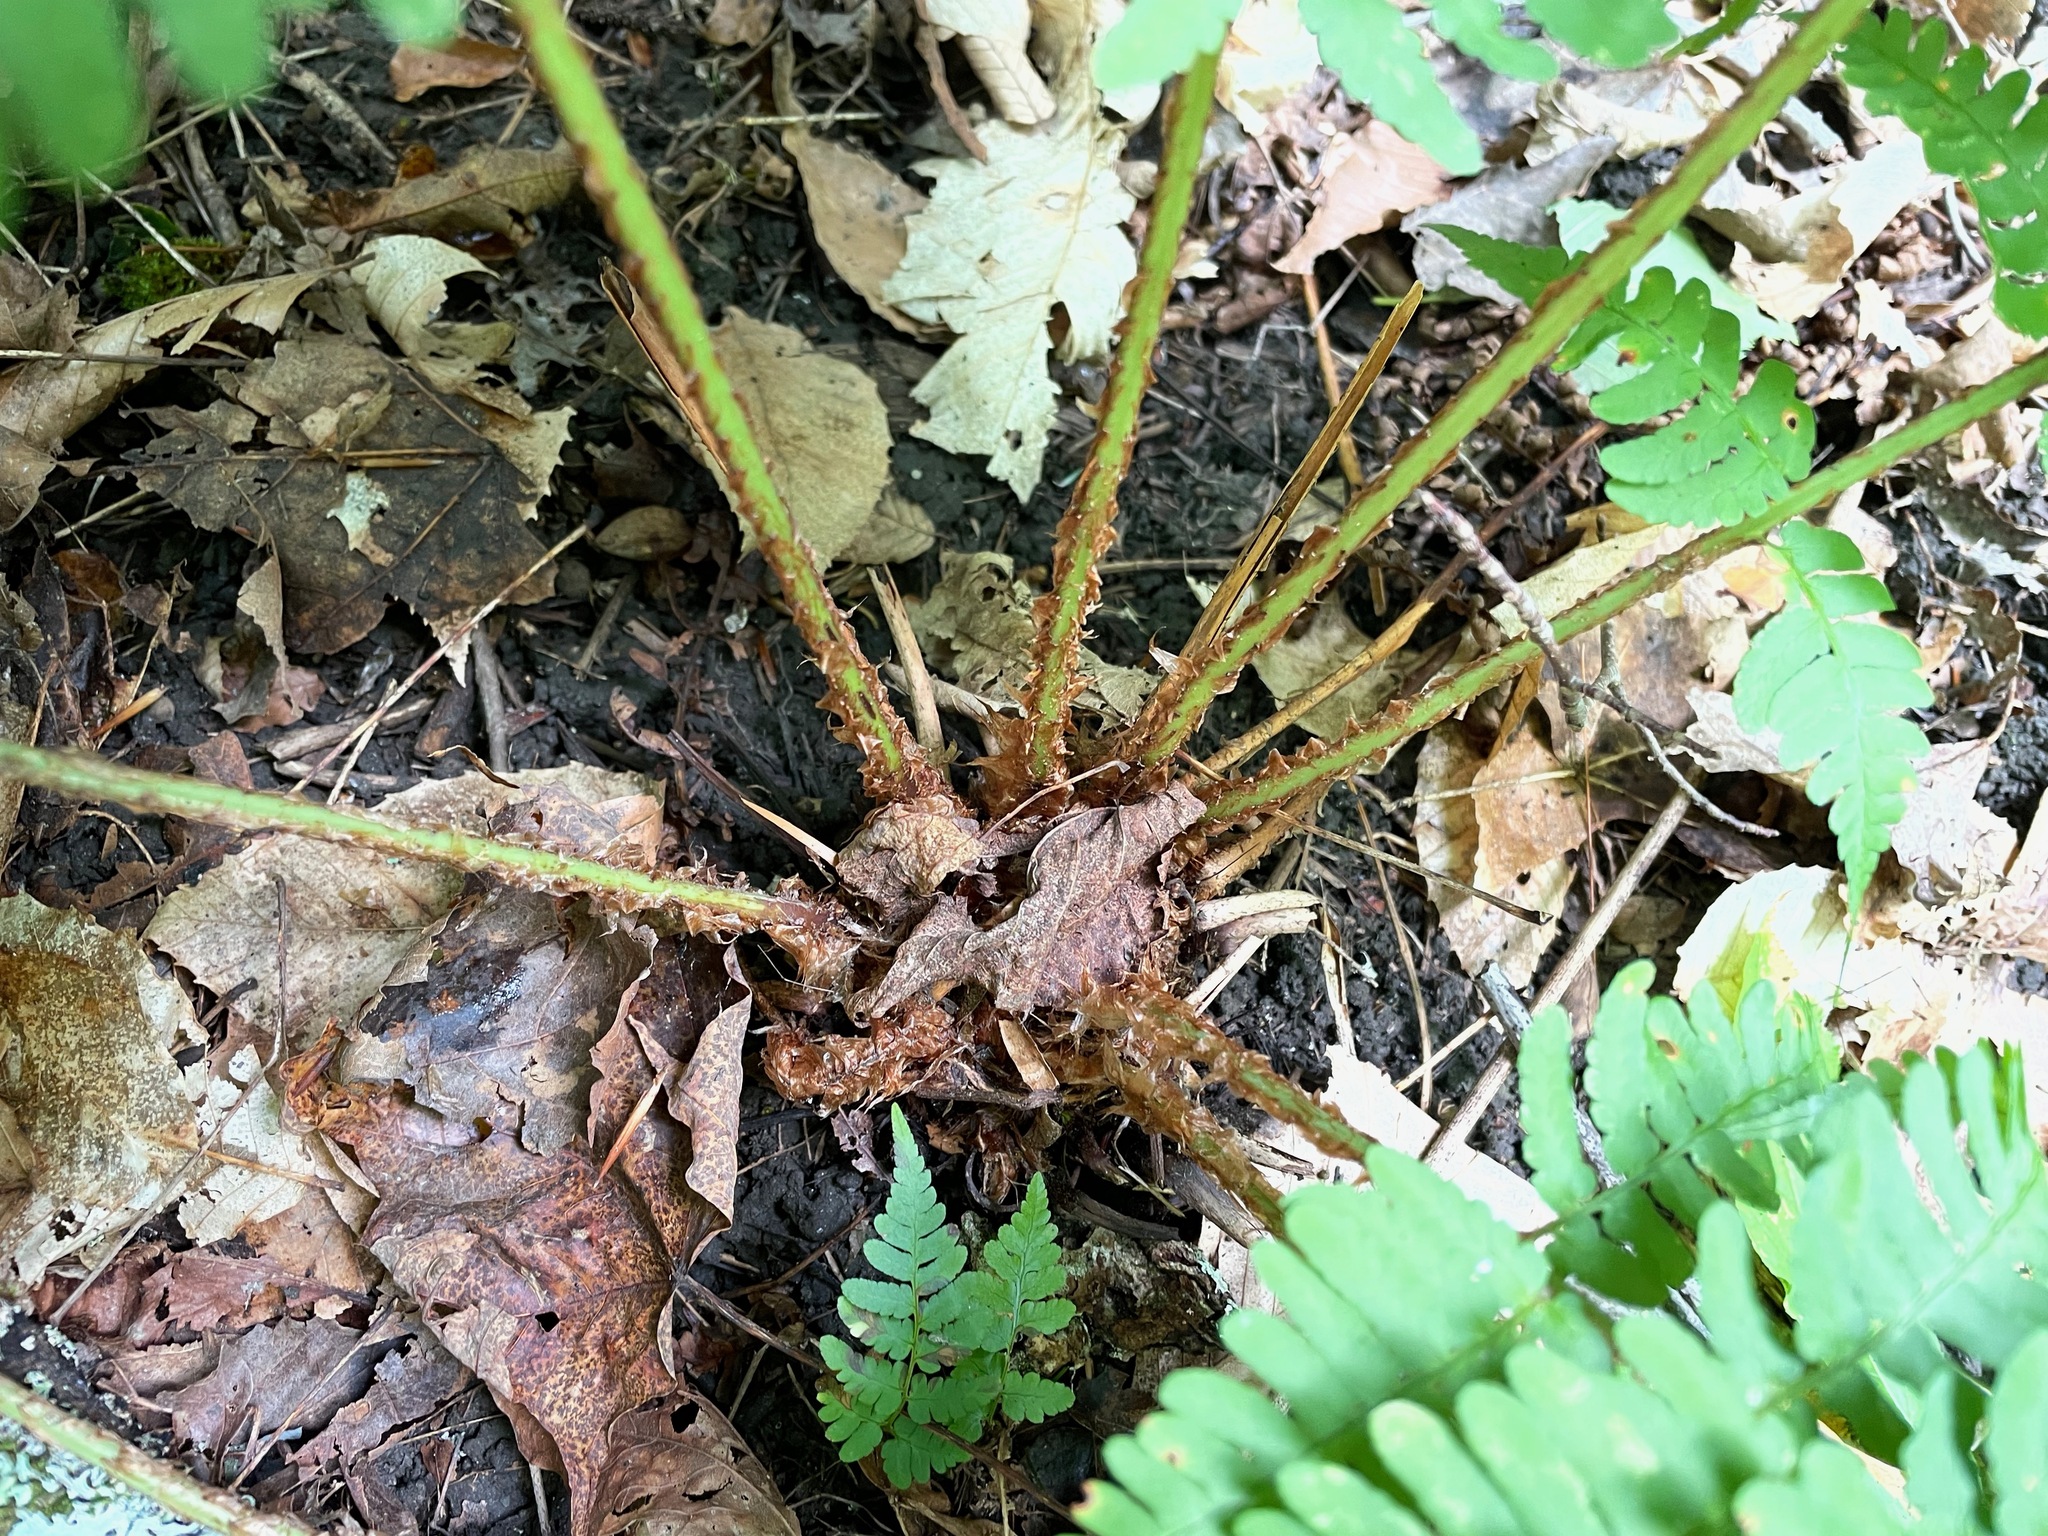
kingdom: Plantae
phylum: Tracheophyta
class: Polypodiopsida
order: Polypodiales
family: Dryopteridaceae
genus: Dryopteris
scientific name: Dryopteris marginalis
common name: Marginal wood fern
